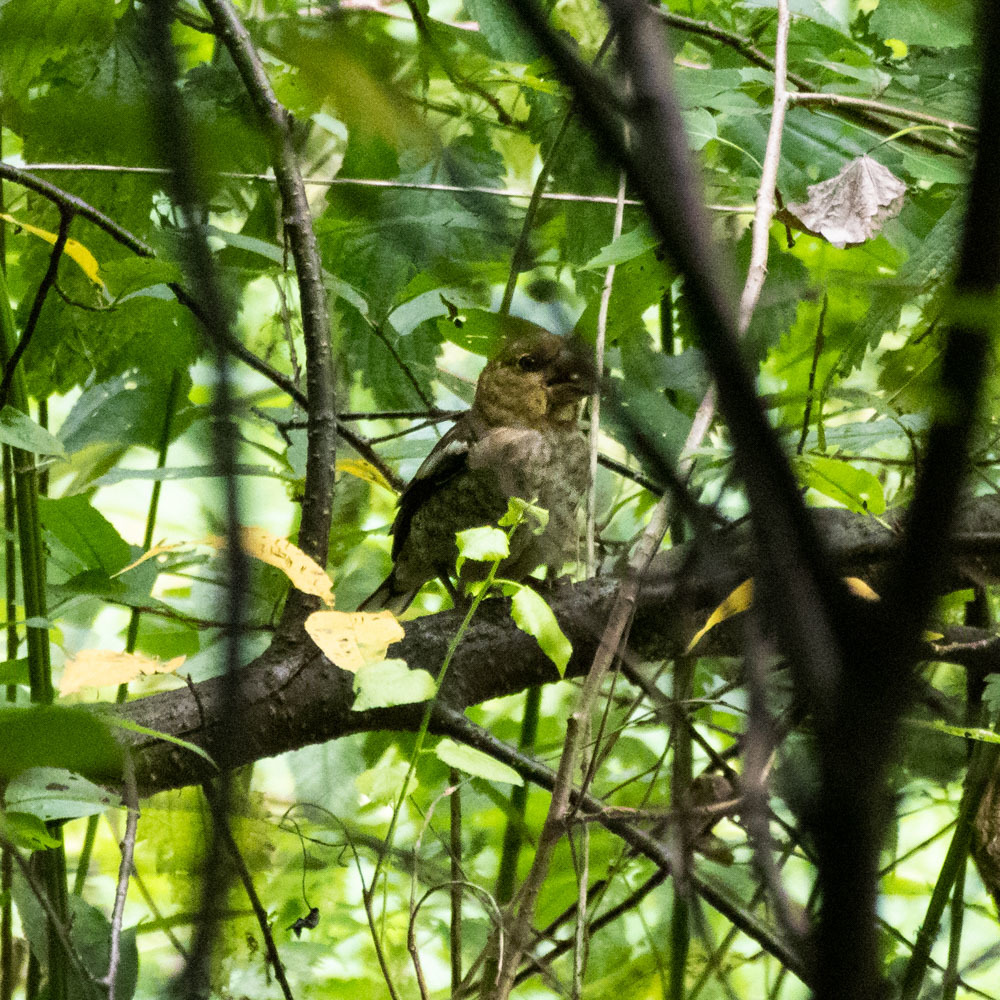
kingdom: Animalia
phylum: Chordata
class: Aves
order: Passeriformes
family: Fringillidae
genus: Coccothraustes
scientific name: Coccothraustes coccothraustes
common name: Hawfinch
